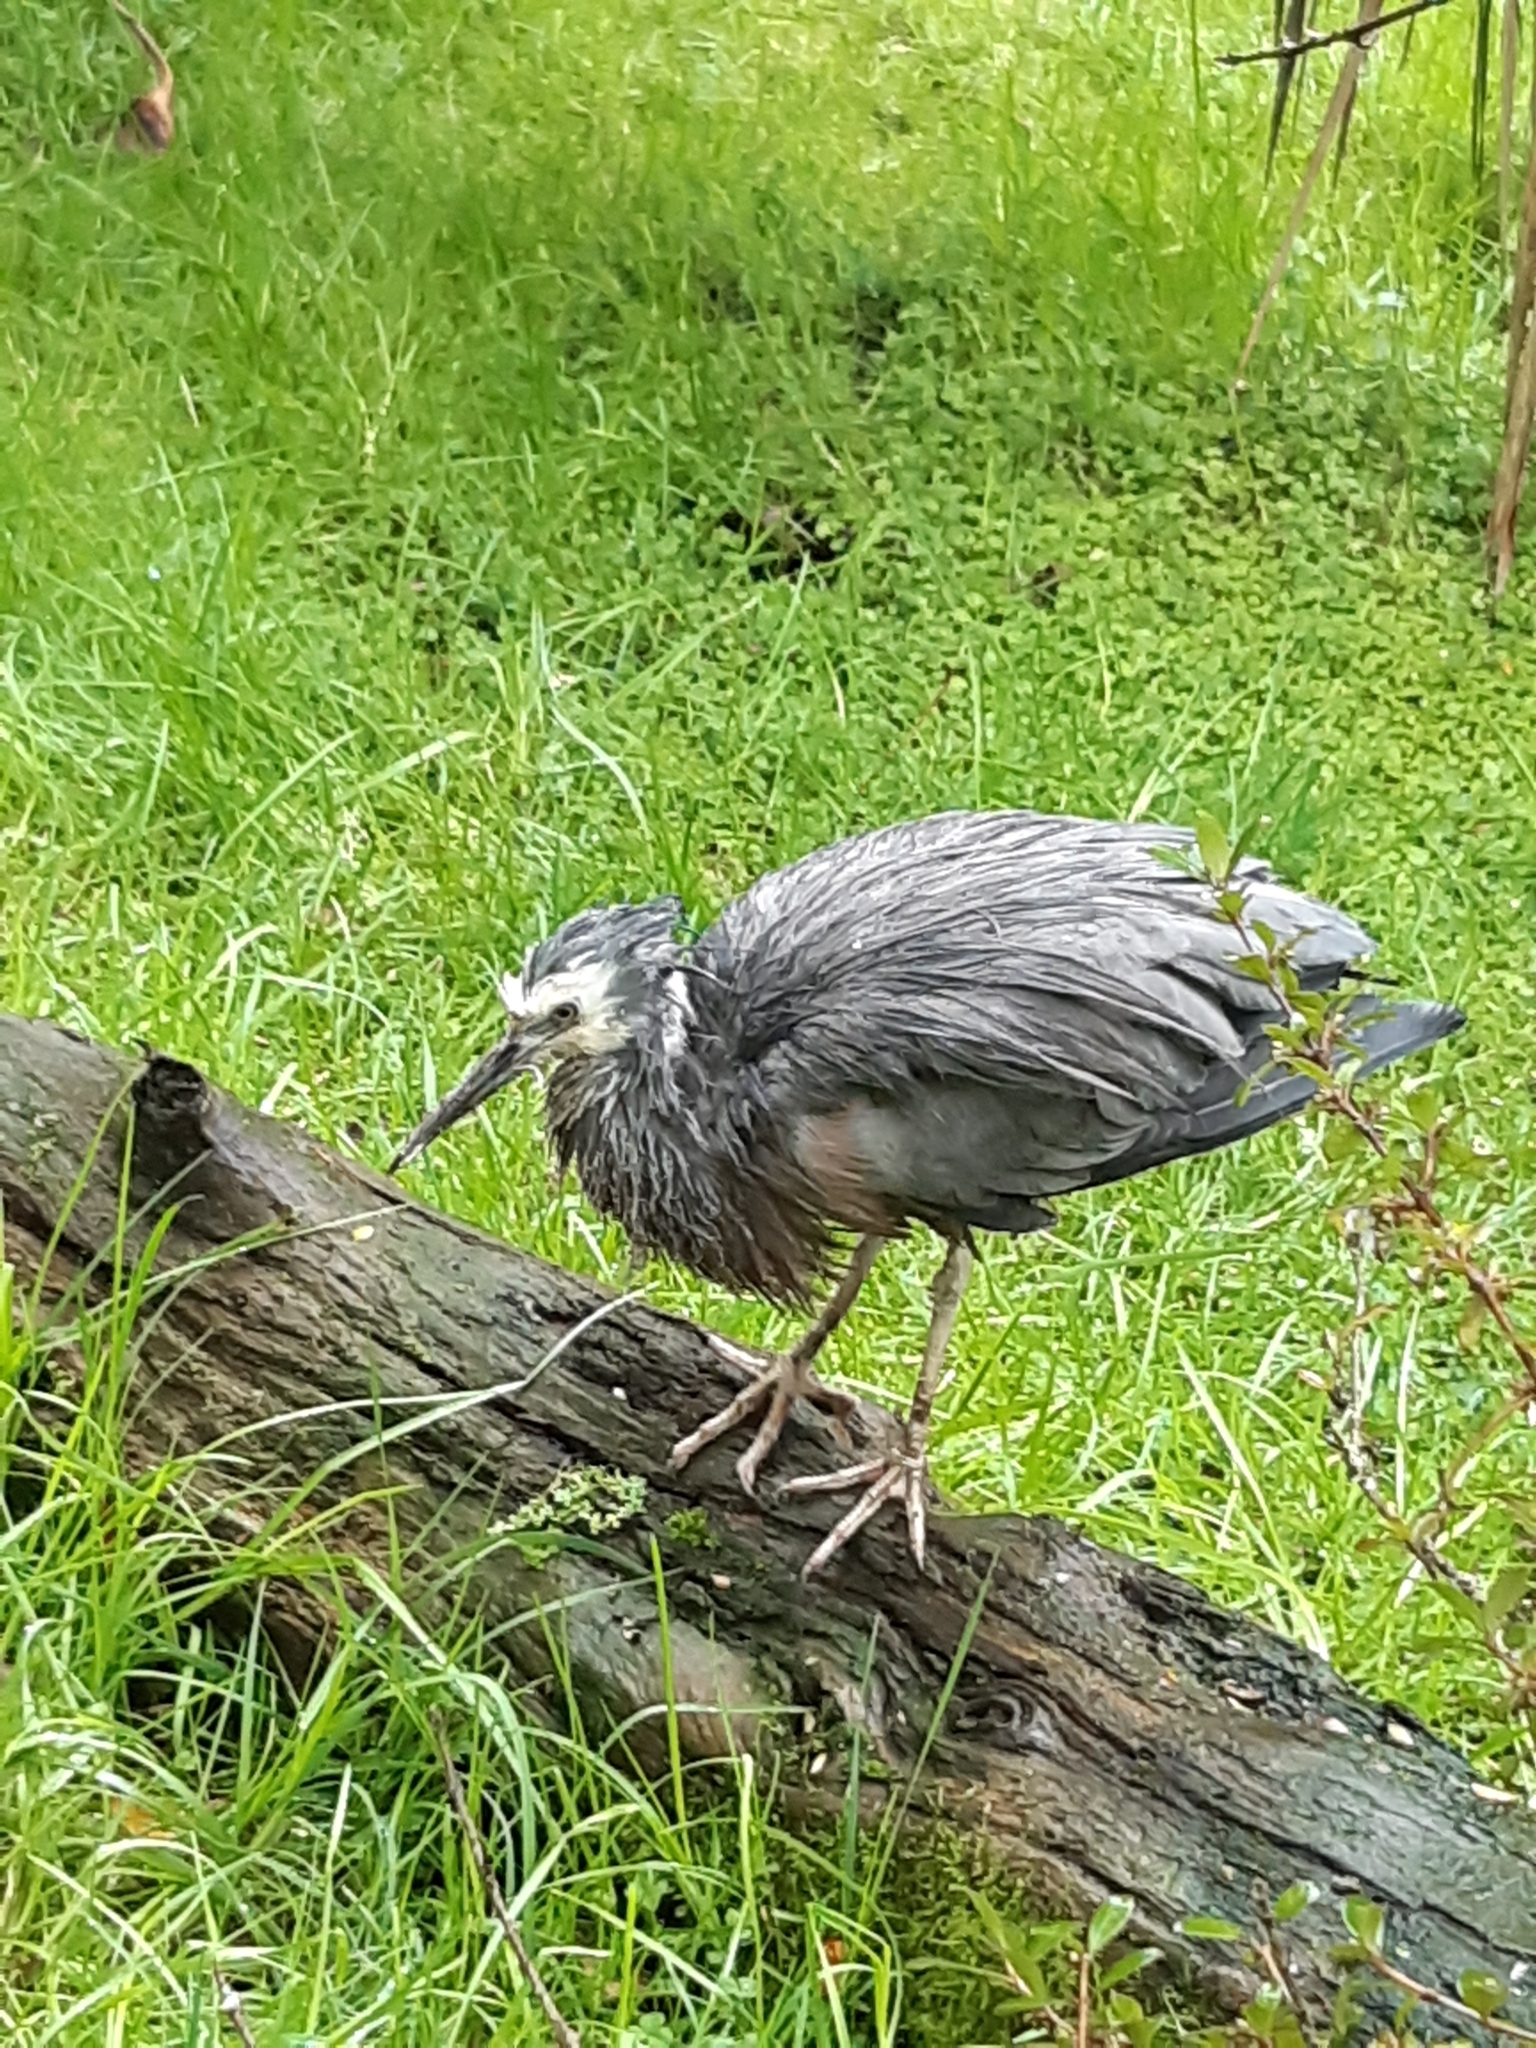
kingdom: Animalia
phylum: Chordata
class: Aves
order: Pelecaniformes
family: Ardeidae
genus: Egretta
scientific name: Egretta novaehollandiae
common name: White-faced heron
